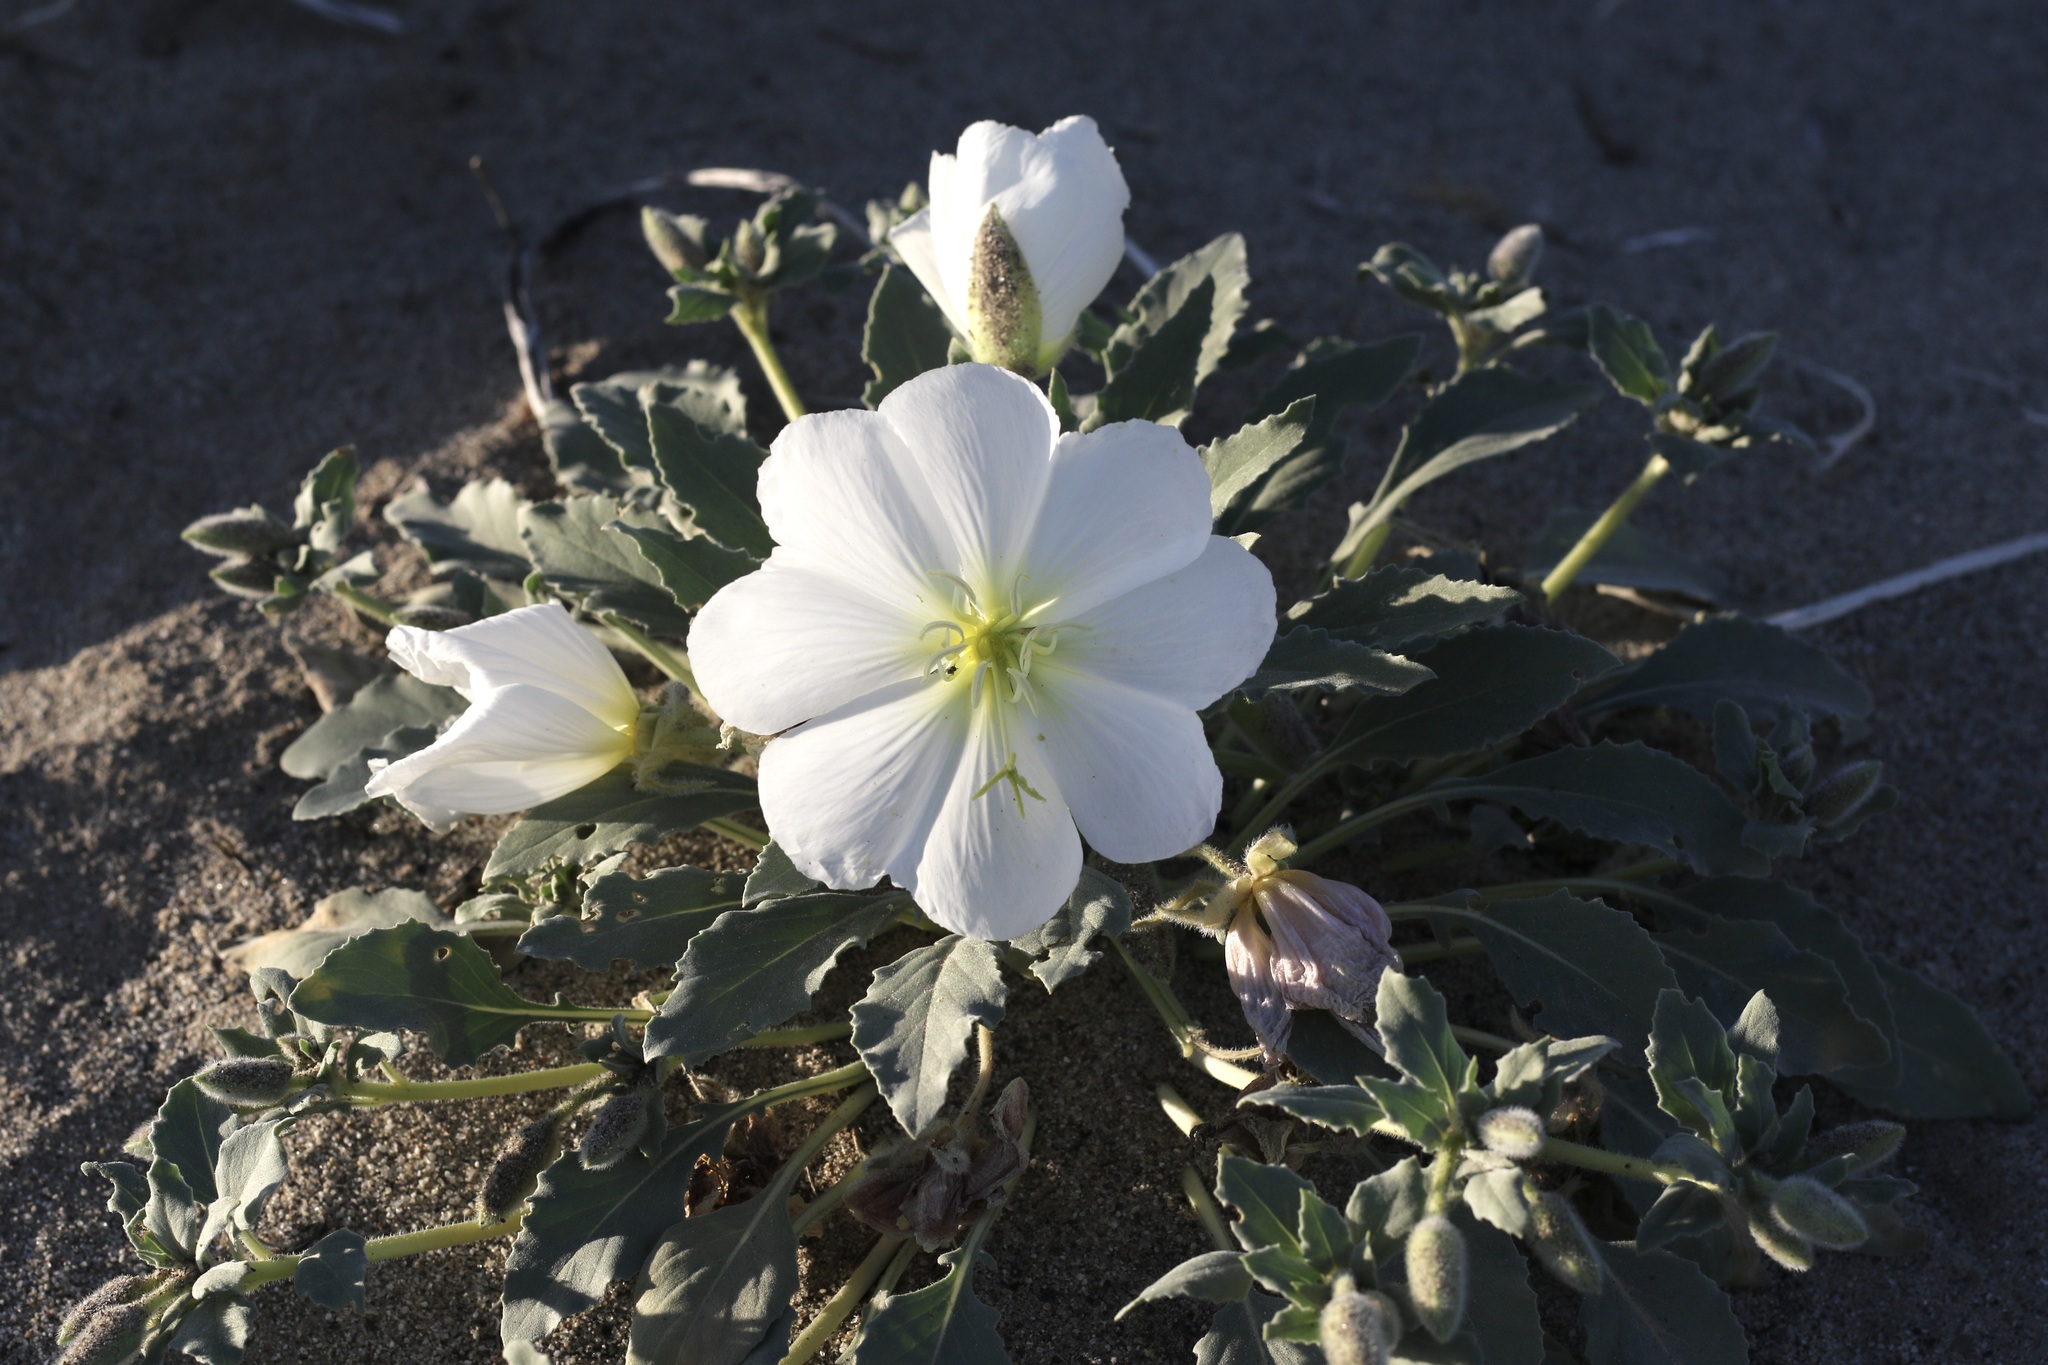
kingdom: Plantae
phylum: Tracheophyta
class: Magnoliopsida
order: Myrtales
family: Onagraceae
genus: Oenothera
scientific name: Oenothera deltoides
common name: Basket evening-primrose
